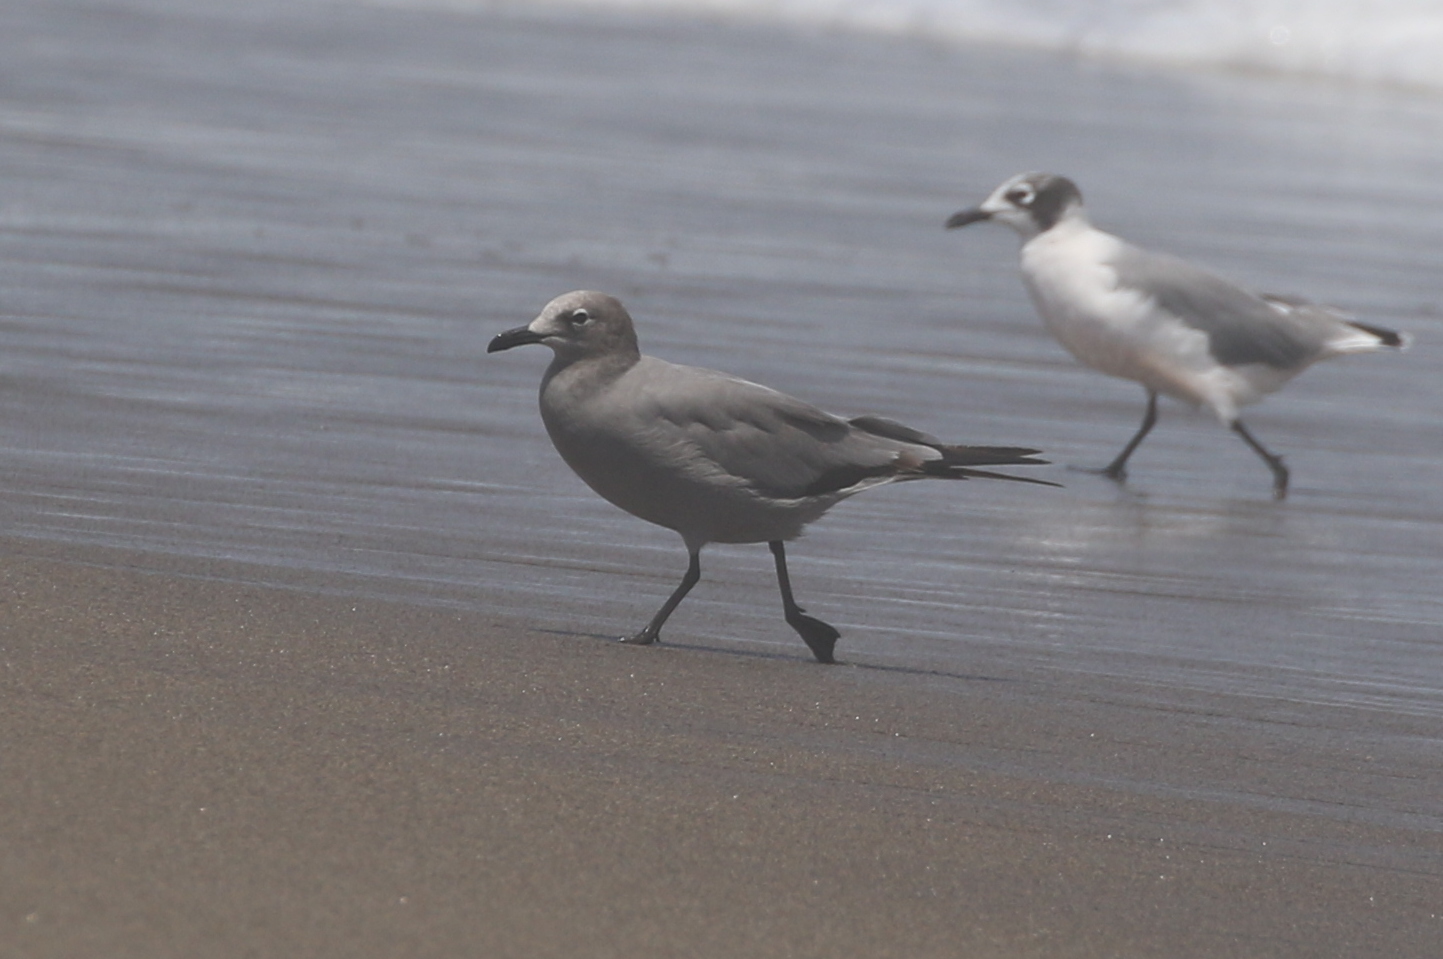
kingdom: Animalia
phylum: Chordata
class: Aves
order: Charadriiformes
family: Laridae
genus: Leucophaeus
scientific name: Leucophaeus modestus
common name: Gray gull
